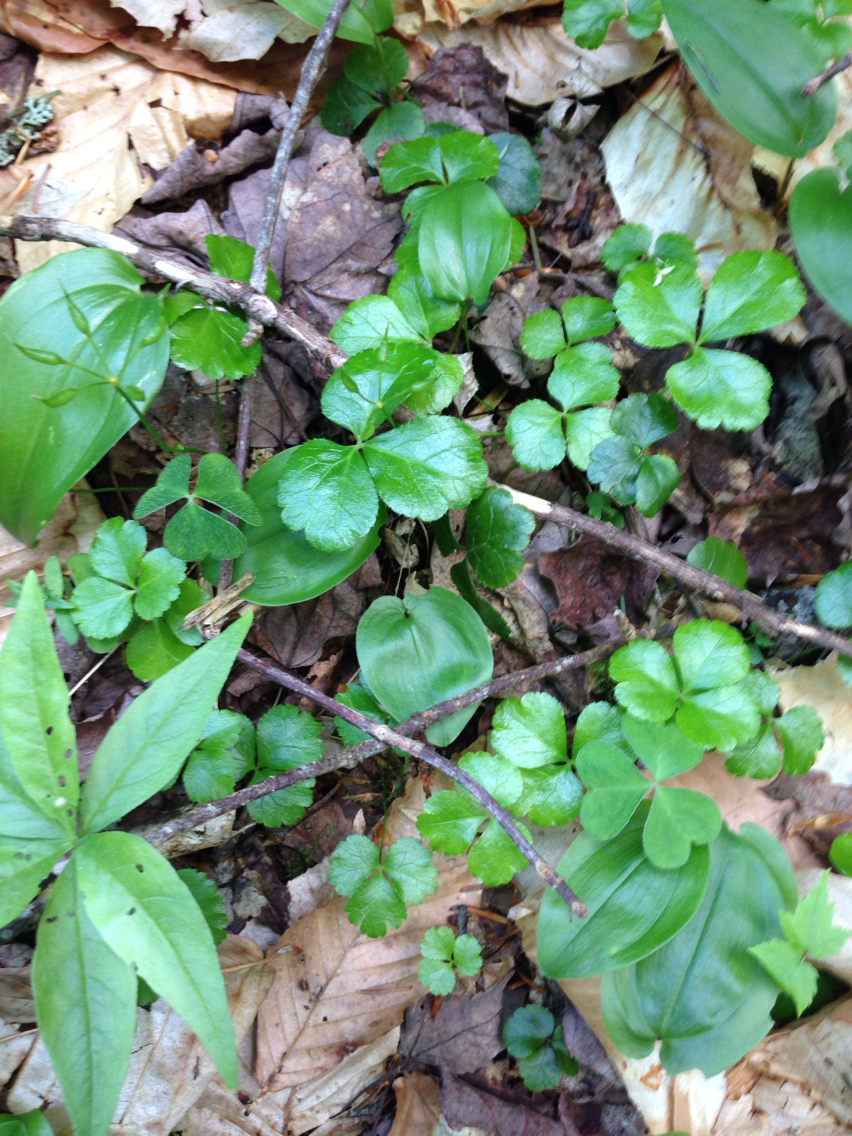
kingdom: Plantae
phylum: Tracheophyta
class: Magnoliopsida
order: Ranunculales
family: Ranunculaceae
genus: Coptis
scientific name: Coptis trifolia
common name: Canker-root
